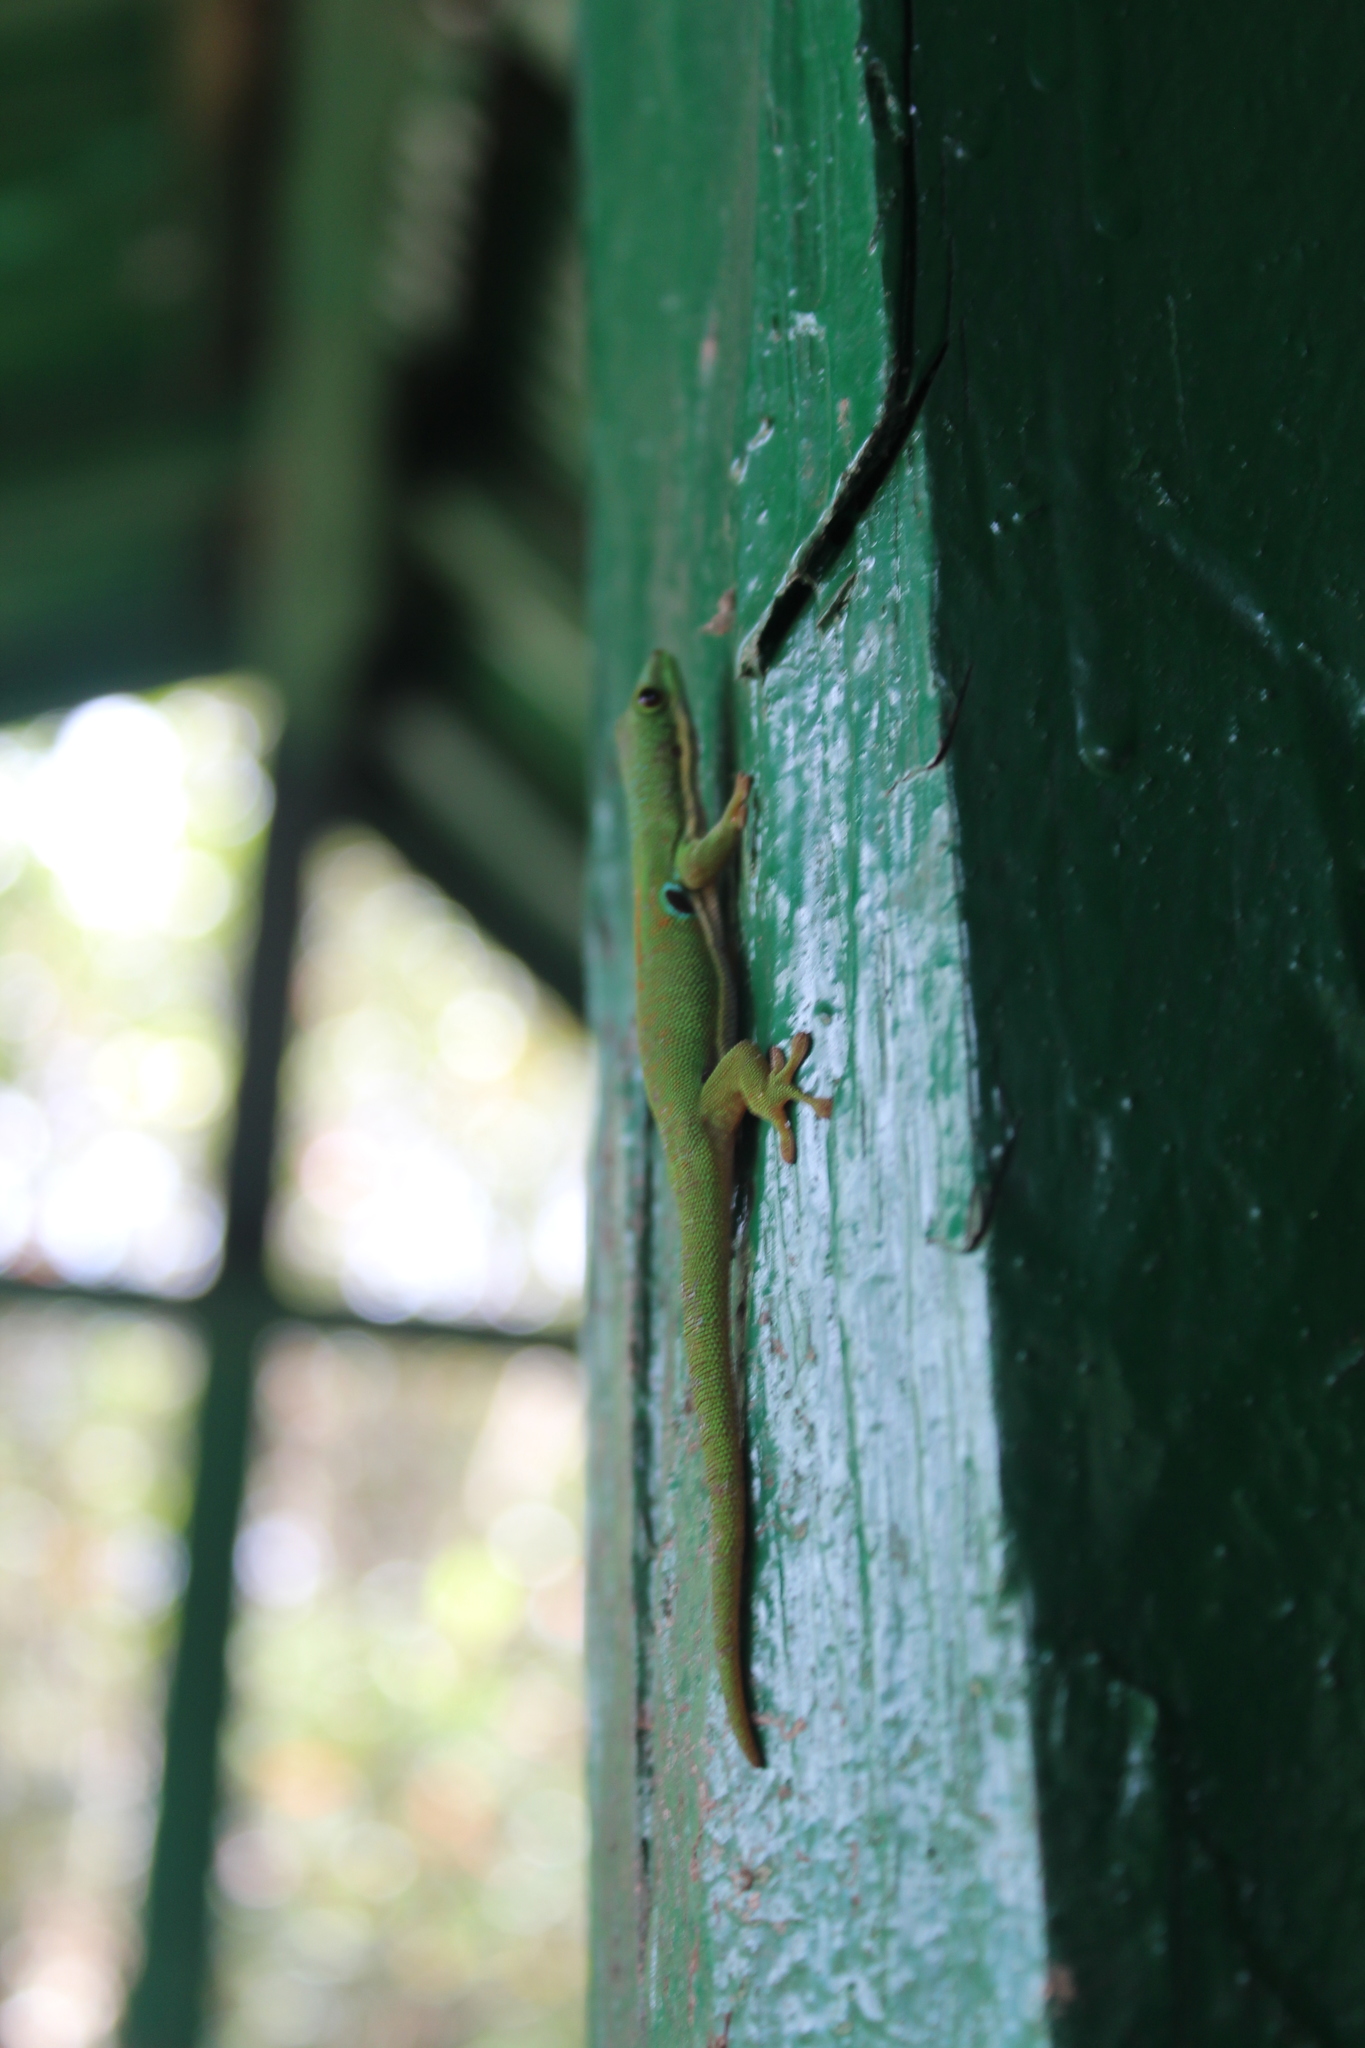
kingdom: Animalia
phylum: Chordata
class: Squamata
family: Gekkonidae
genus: Phelsuma
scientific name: Phelsuma quadriocellata
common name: Peacock day gecko
